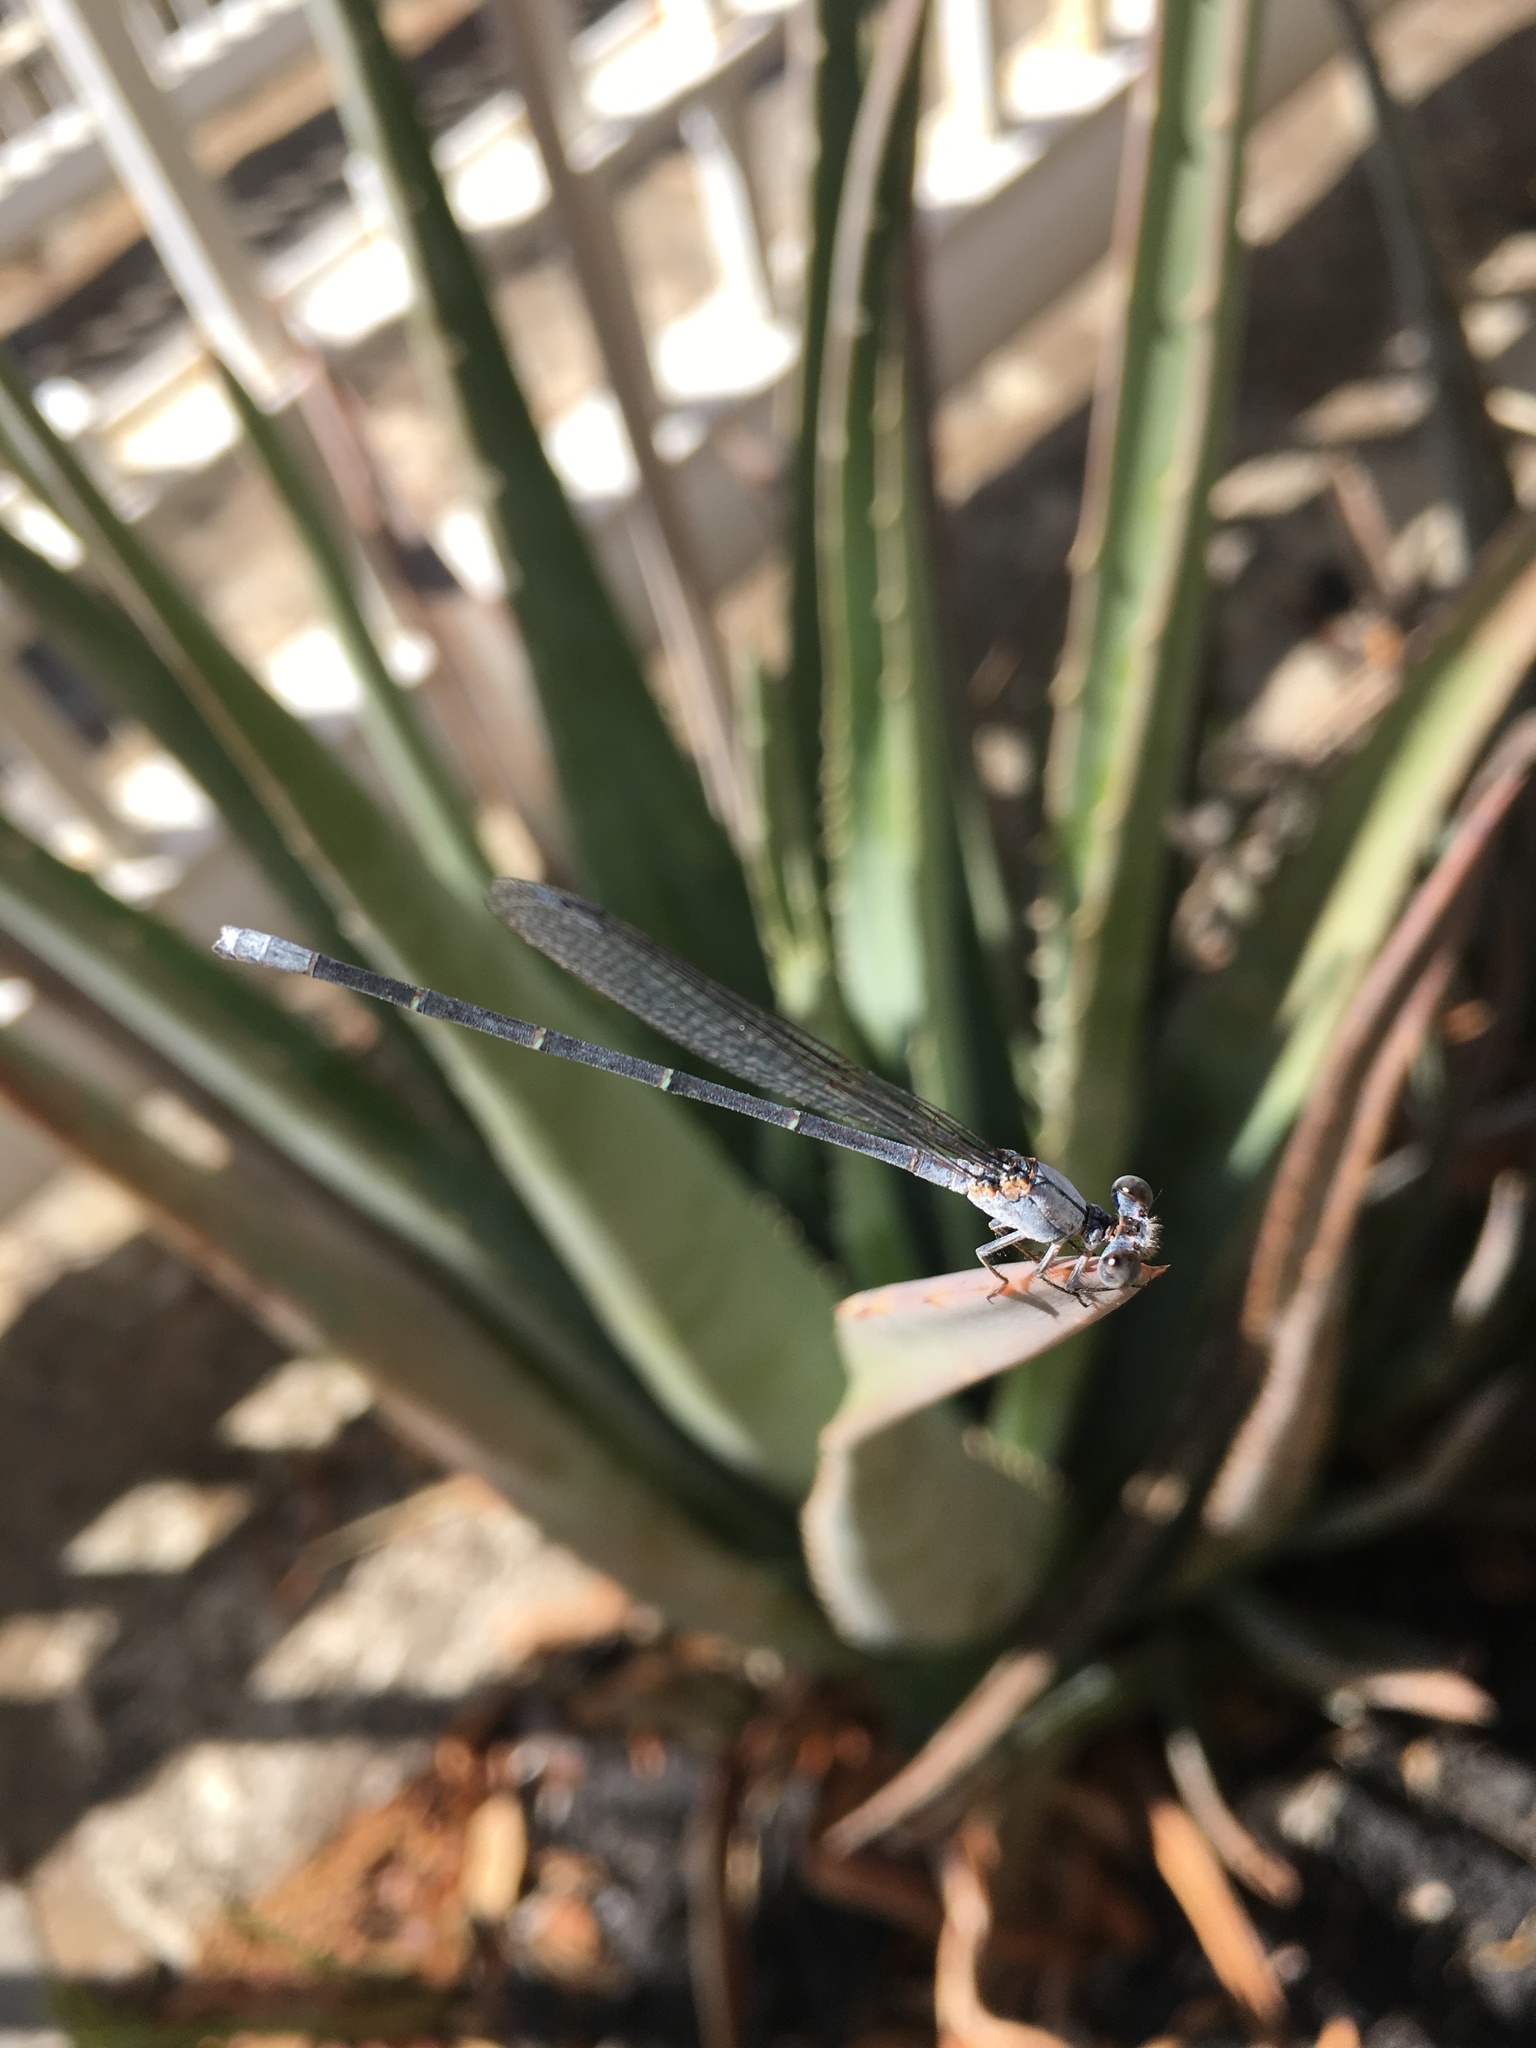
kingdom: Animalia
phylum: Arthropoda
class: Insecta
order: Odonata
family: Coenagrionidae
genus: Argia
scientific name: Argia moesta
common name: Powdered dancer
